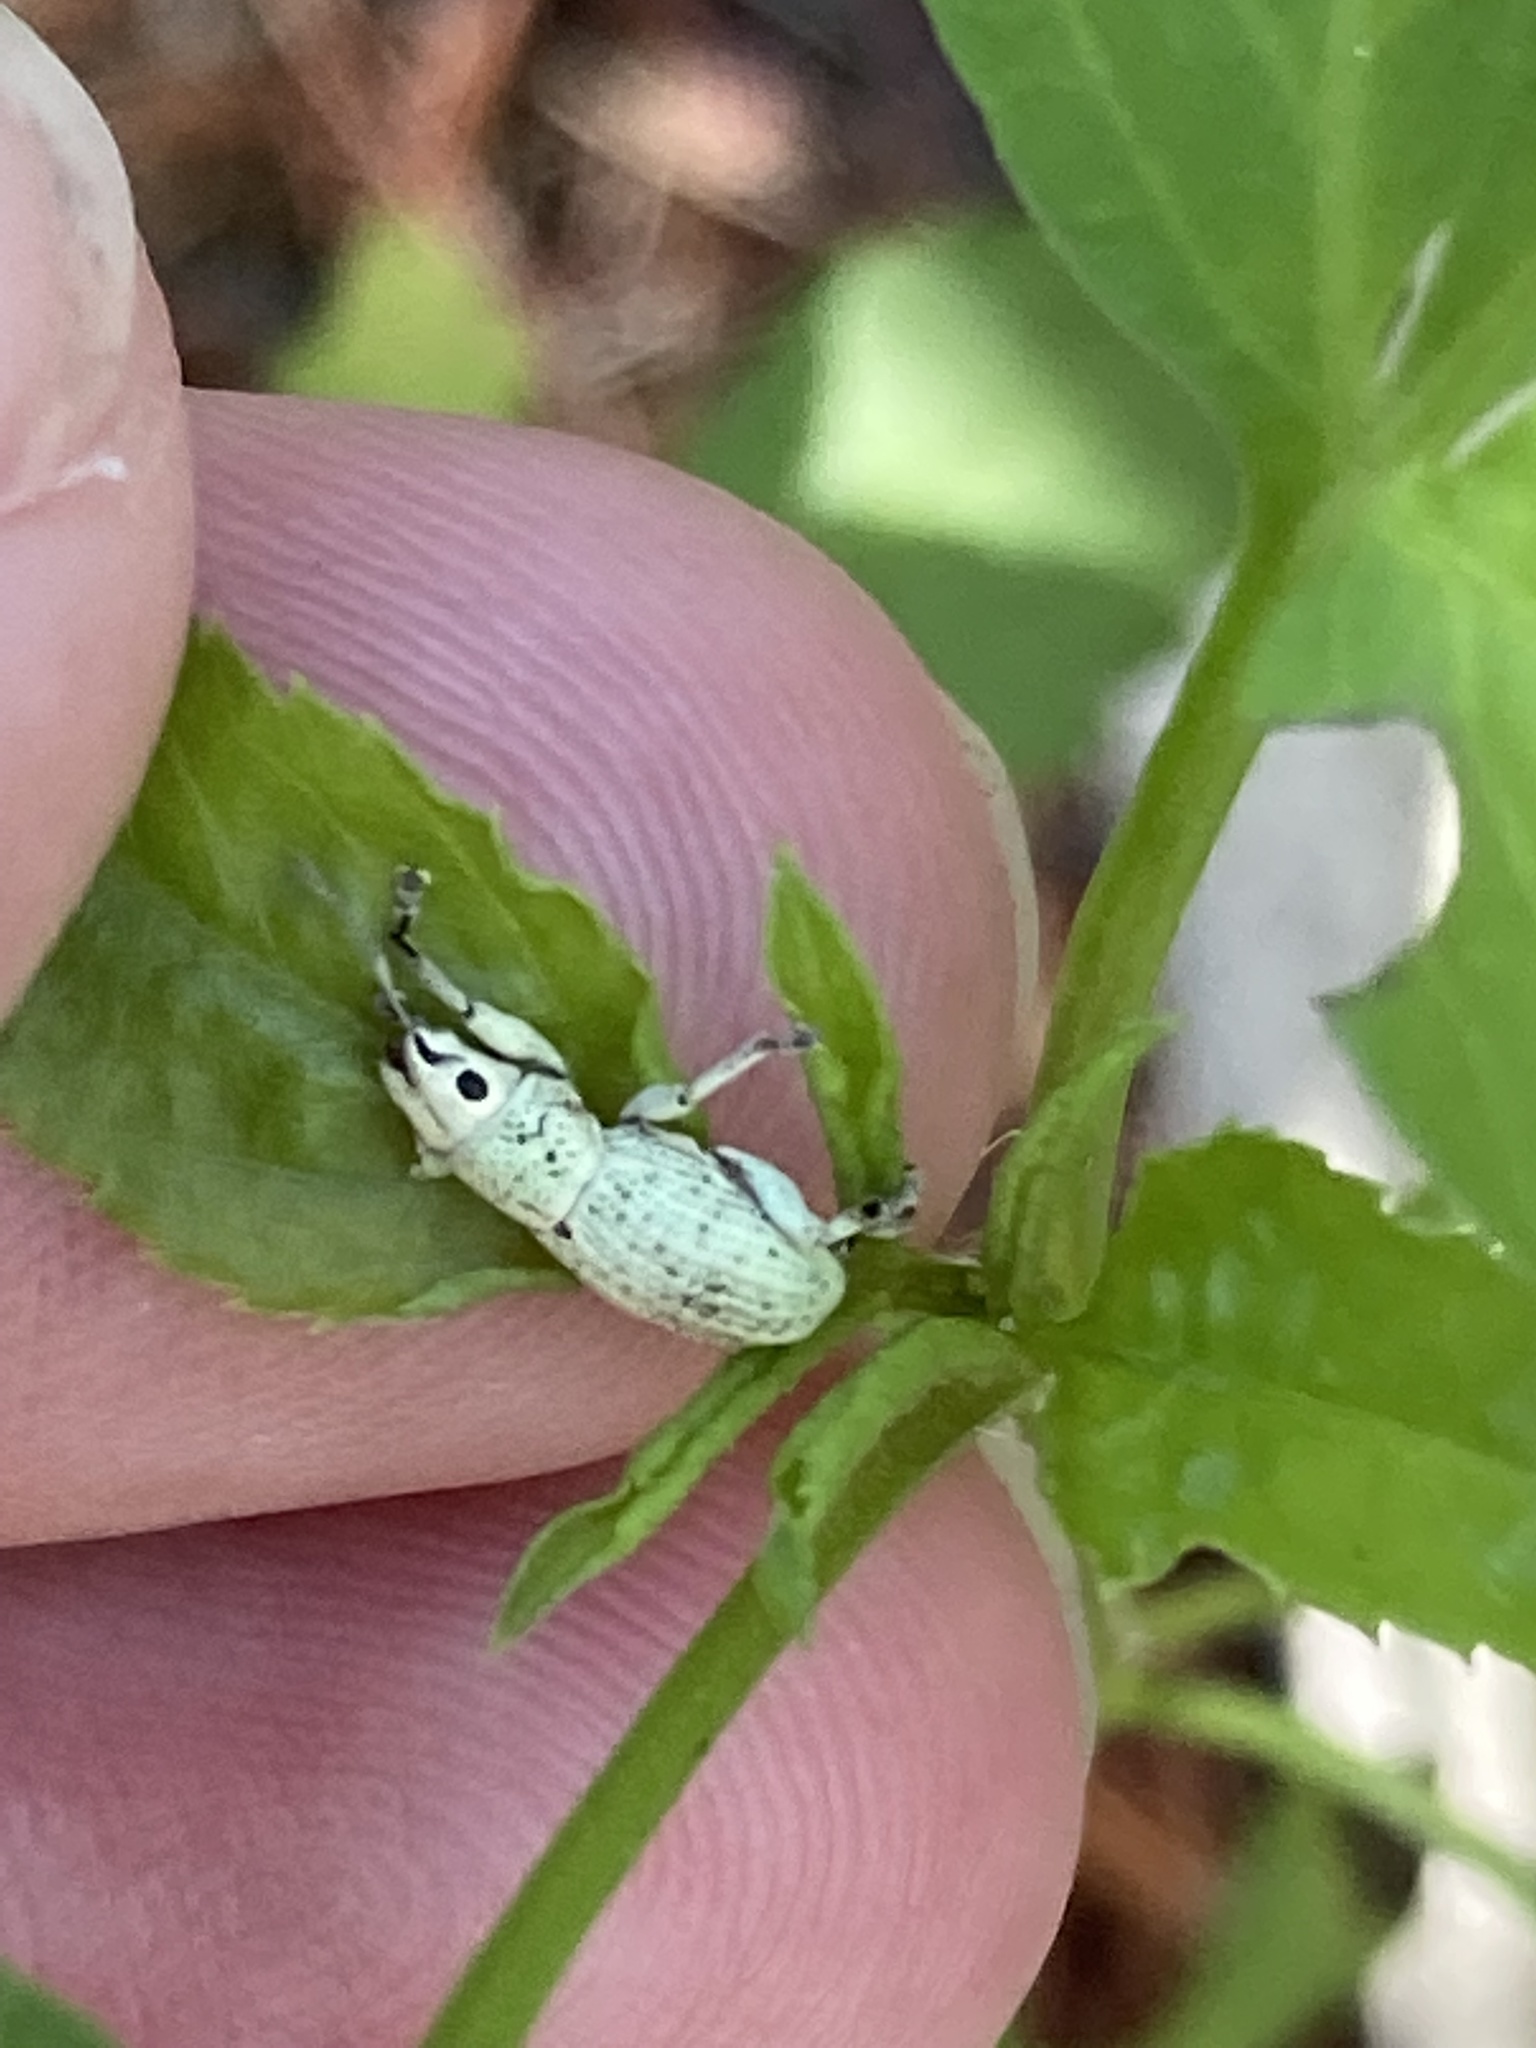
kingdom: Animalia
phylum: Arthropoda
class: Insecta
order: Coleoptera
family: Curculionidae
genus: Artipus
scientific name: Artipus floridanus
